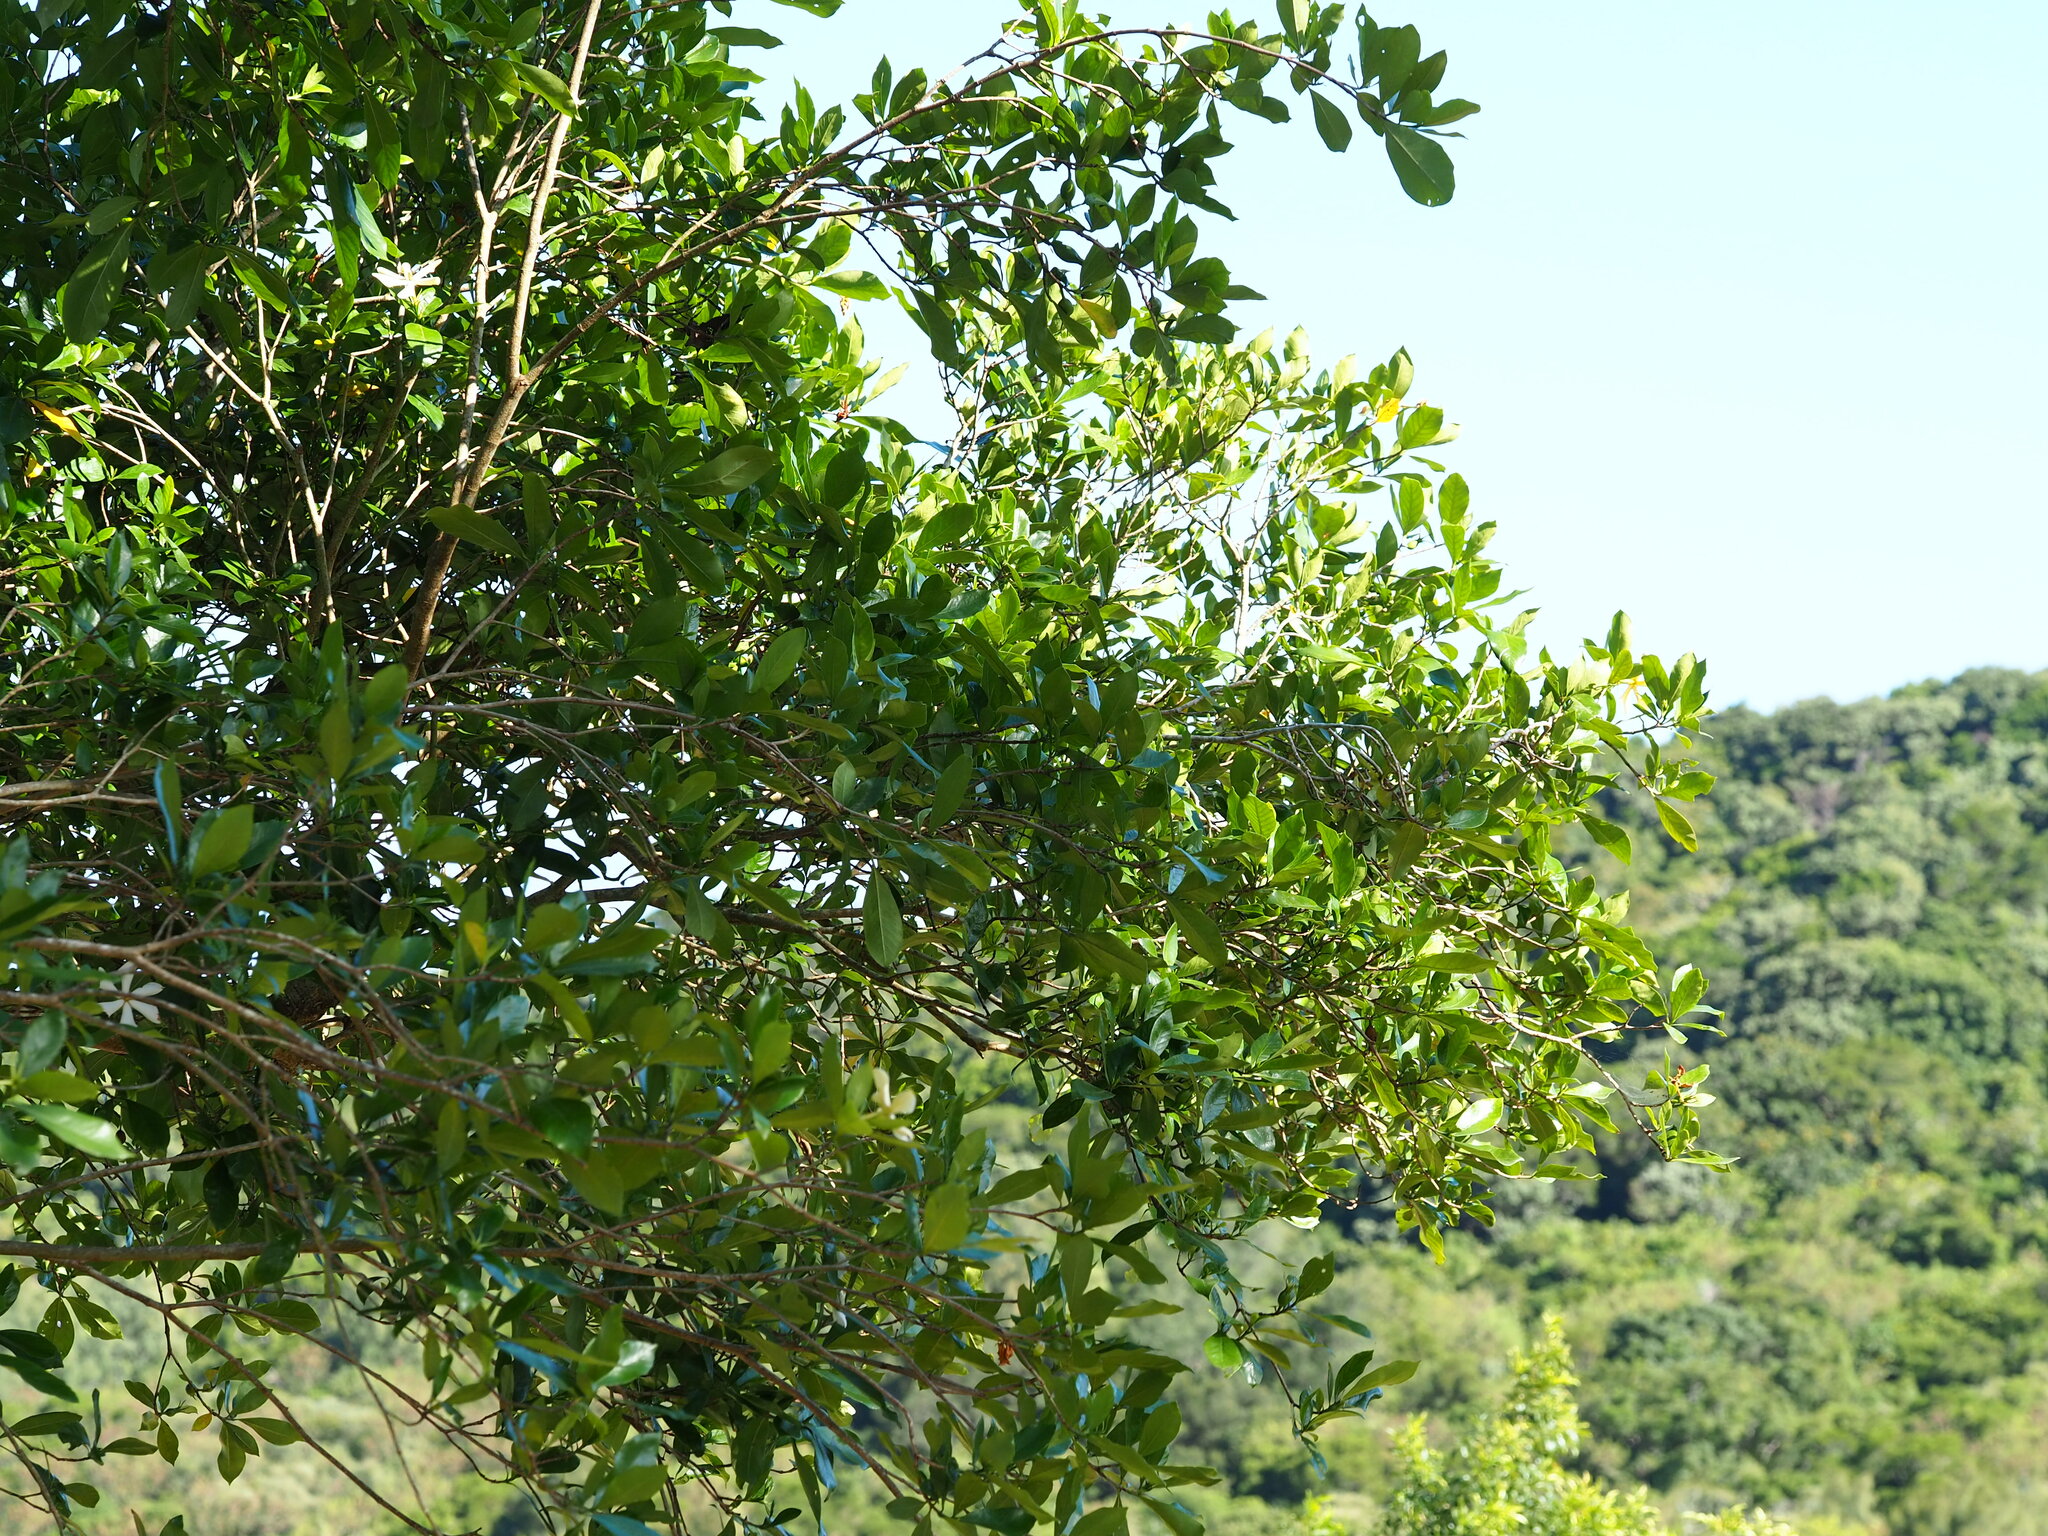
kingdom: Plantae
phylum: Tracheophyta
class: Magnoliopsida
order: Gentianales
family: Rubiaceae
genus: Gardenia
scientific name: Gardenia jasminoides
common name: Cape-jasmine
